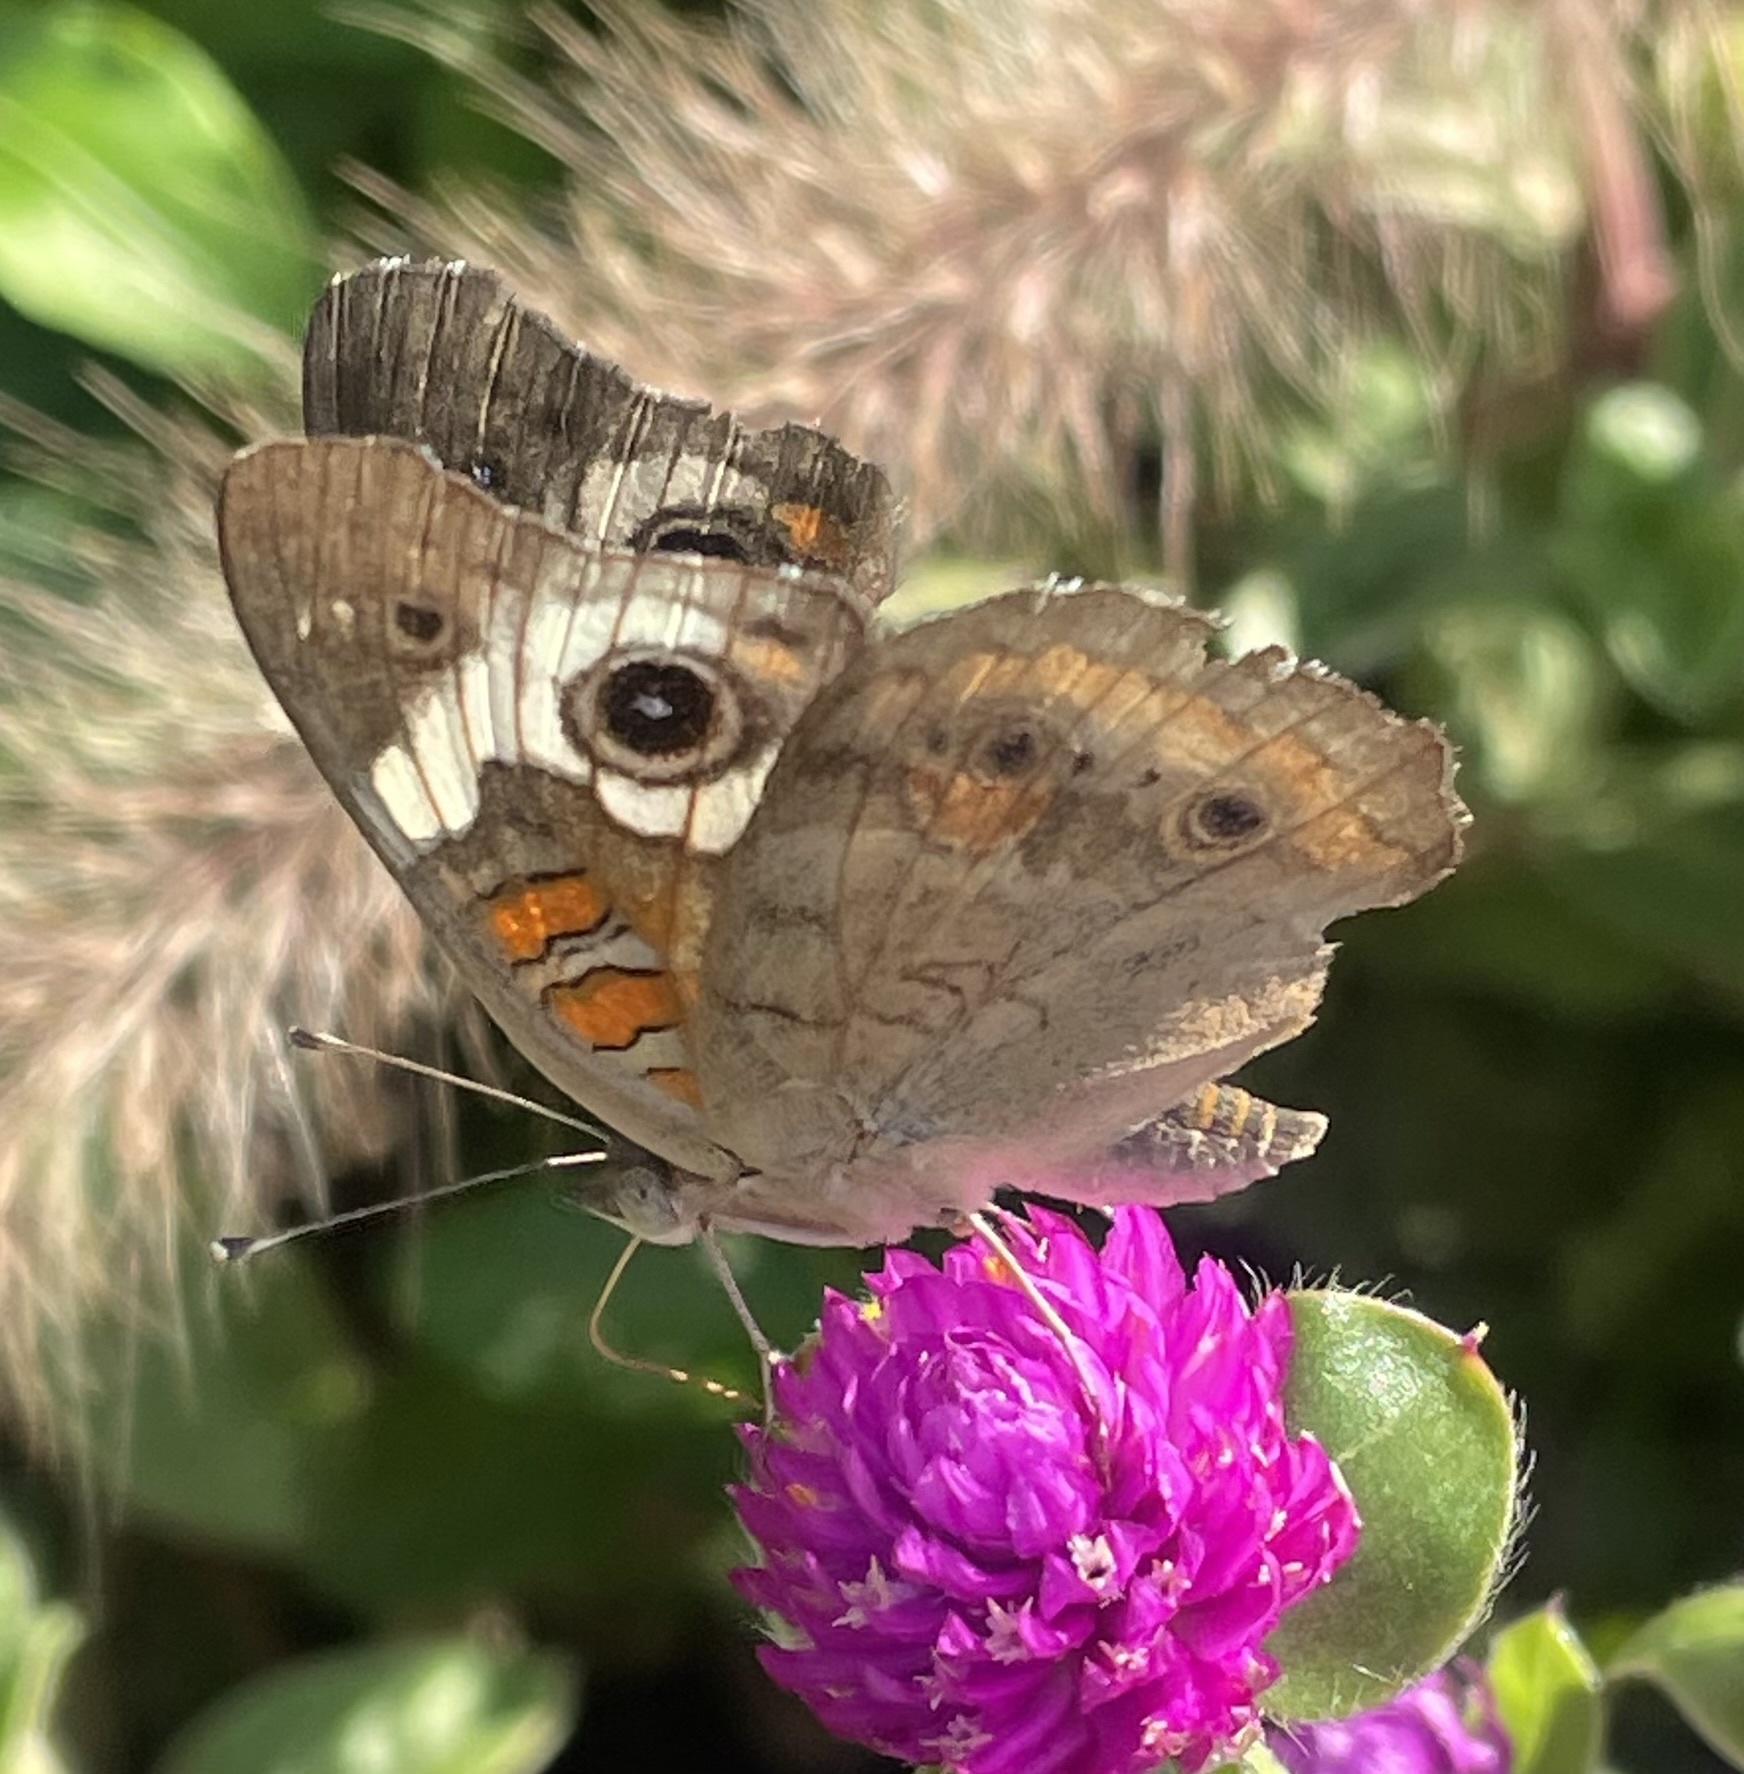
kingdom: Animalia
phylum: Arthropoda
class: Insecta
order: Lepidoptera
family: Nymphalidae
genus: Junonia
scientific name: Junonia coenia
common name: Common buckeye
